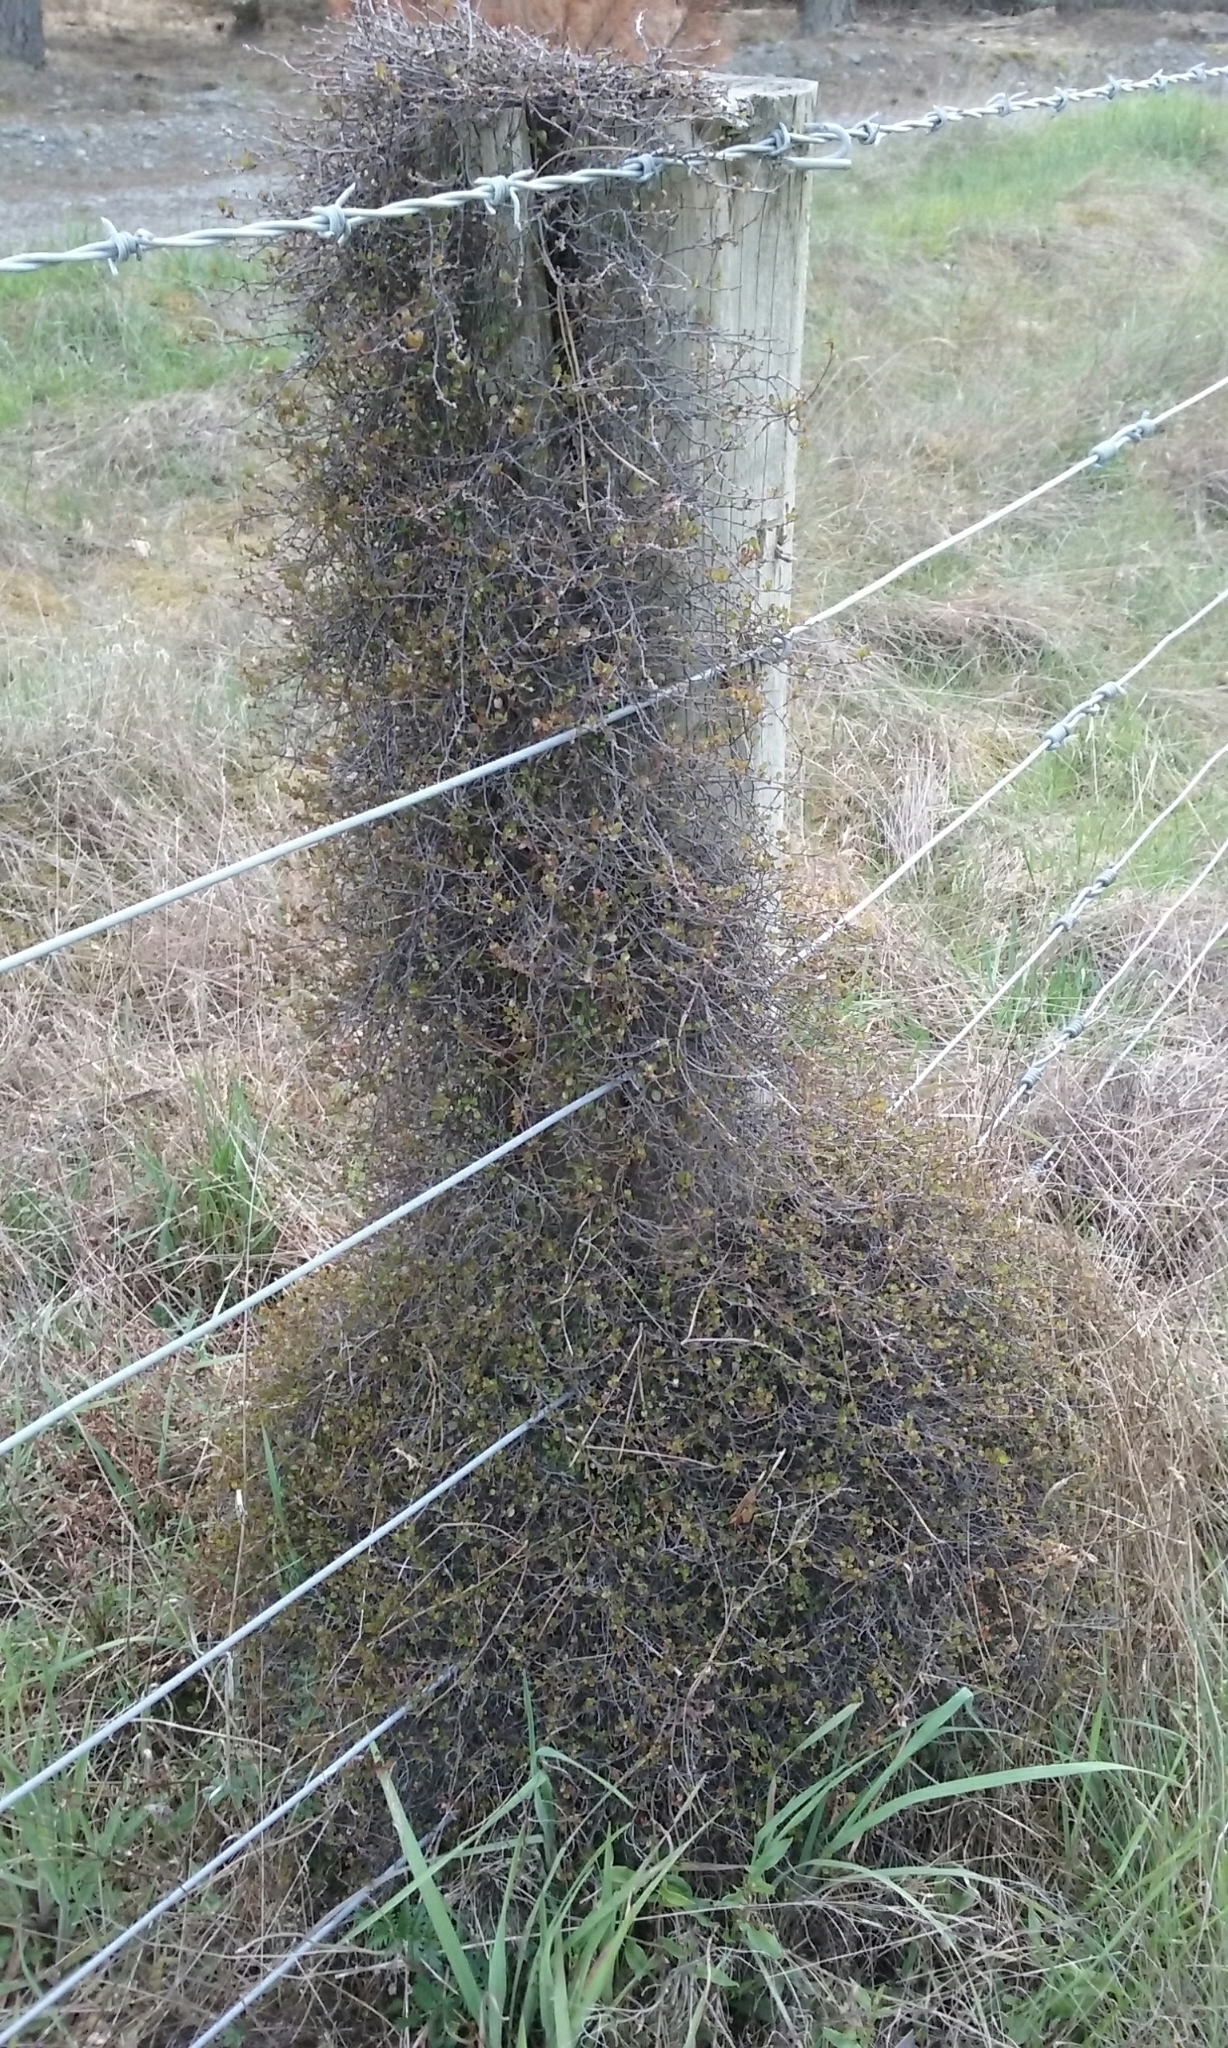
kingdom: Plantae
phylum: Tracheophyta
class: Magnoliopsida
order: Caryophyllales
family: Polygonaceae
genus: Muehlenbeckia
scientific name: Muehlenbeckia complexa
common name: Wireplant
